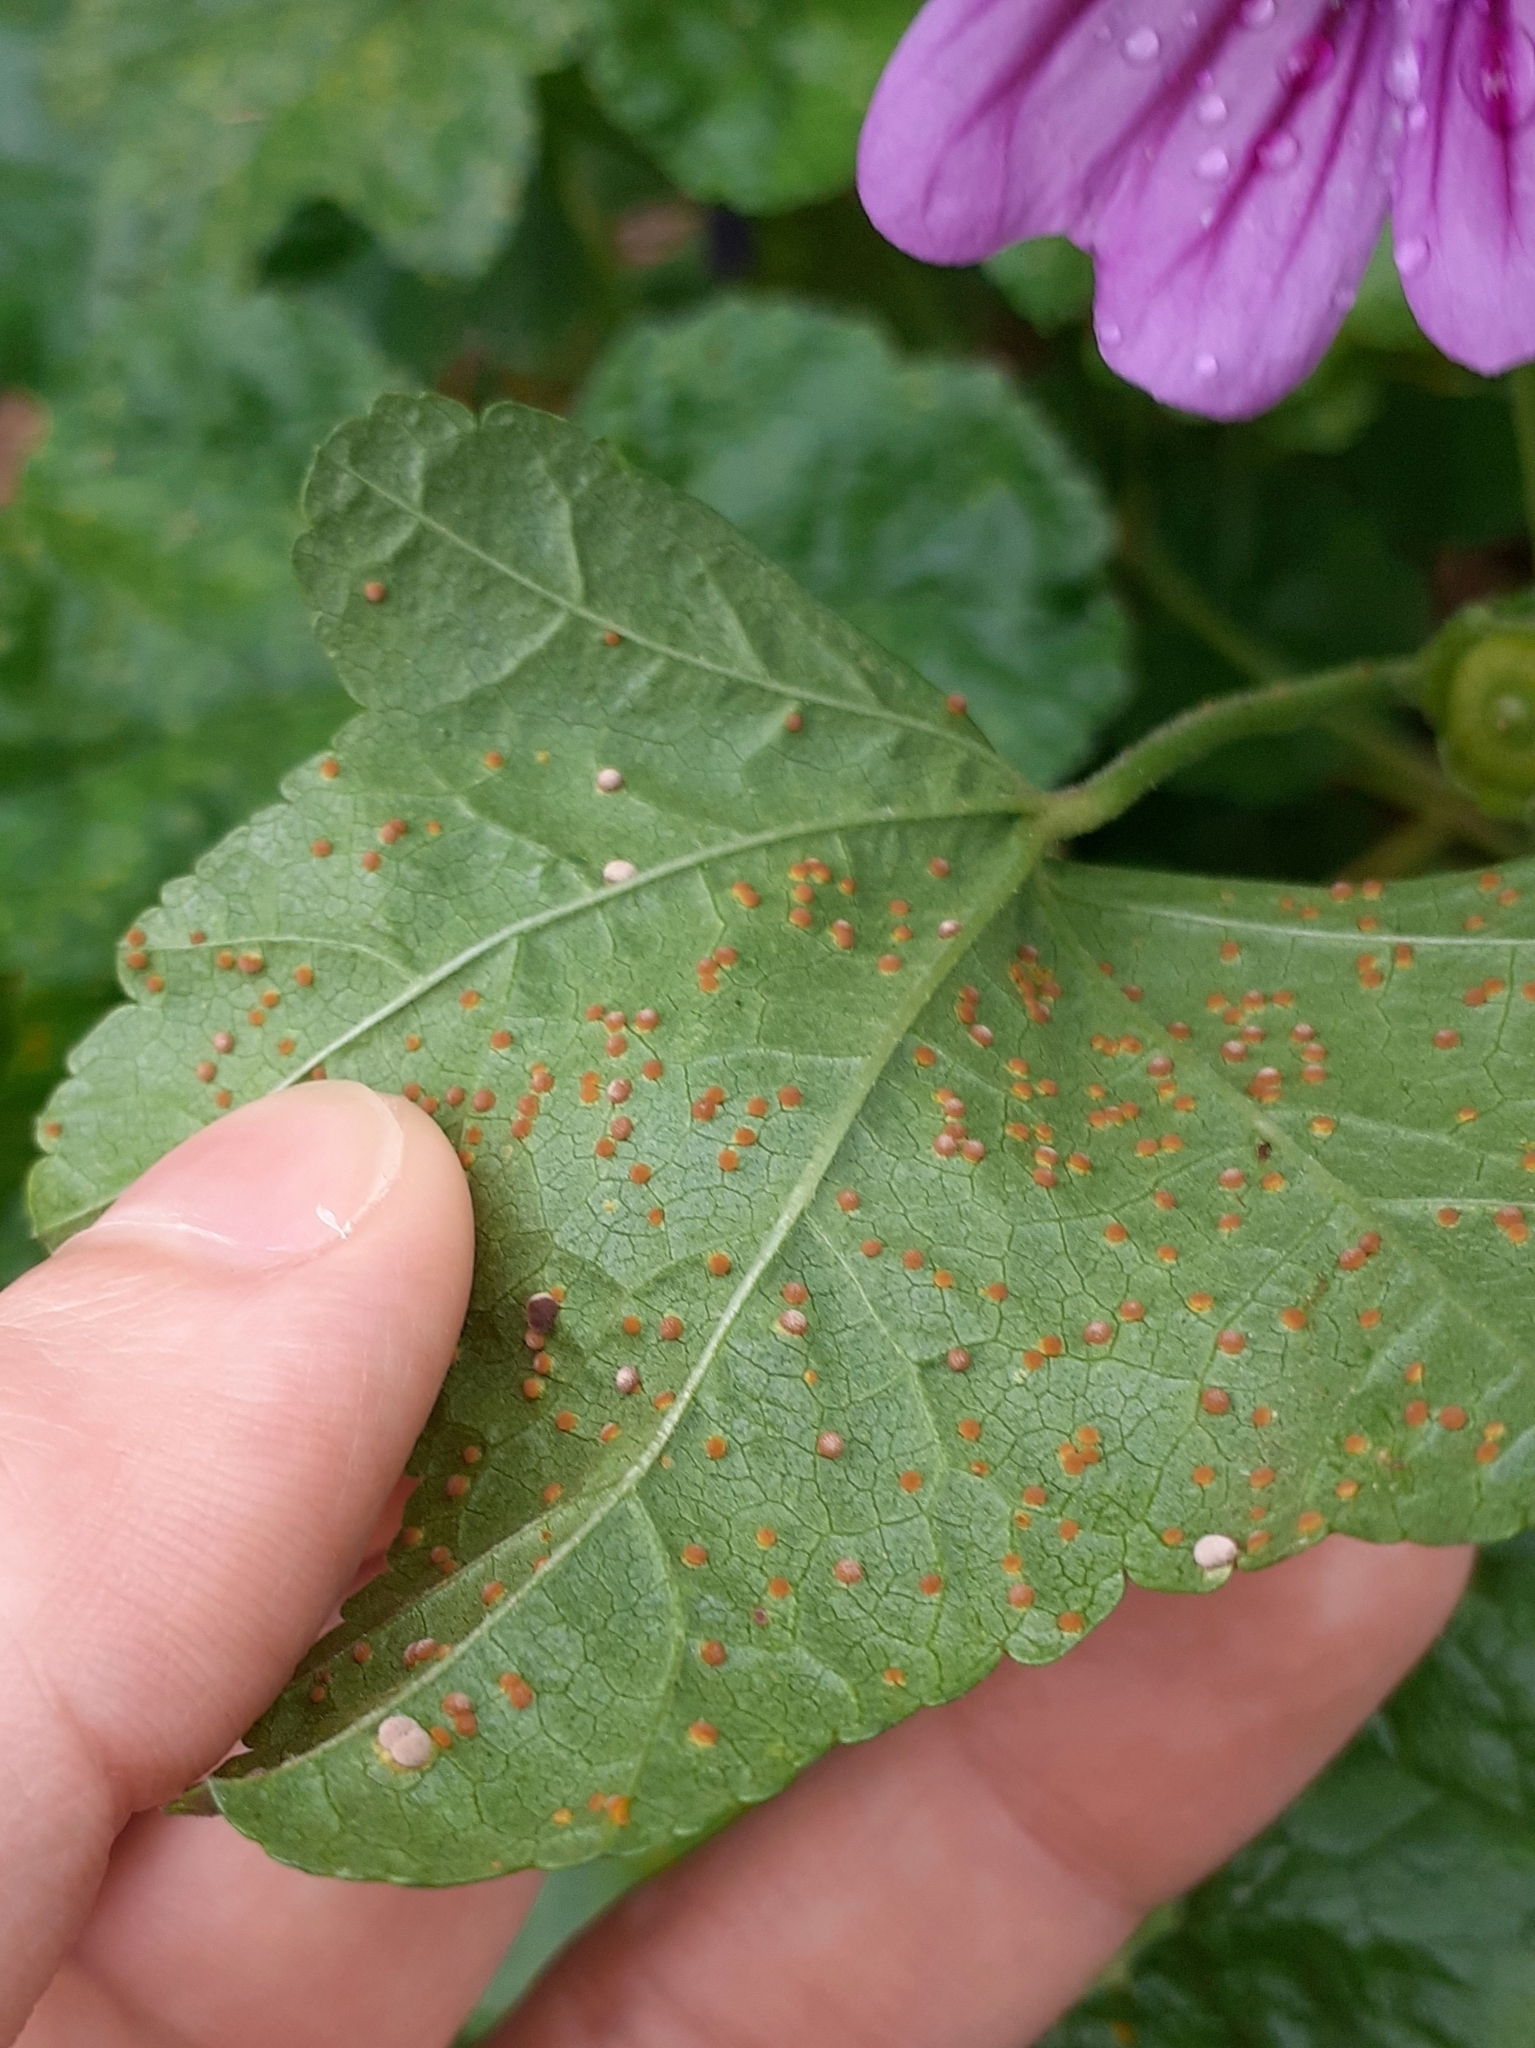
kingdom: Fungi
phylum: Basidiomycota
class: Pucciniomycetes
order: Pucciniales
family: Pucciniaceae
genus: Puccinia
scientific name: Puccinia malvacearum
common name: Hollyhock rust
